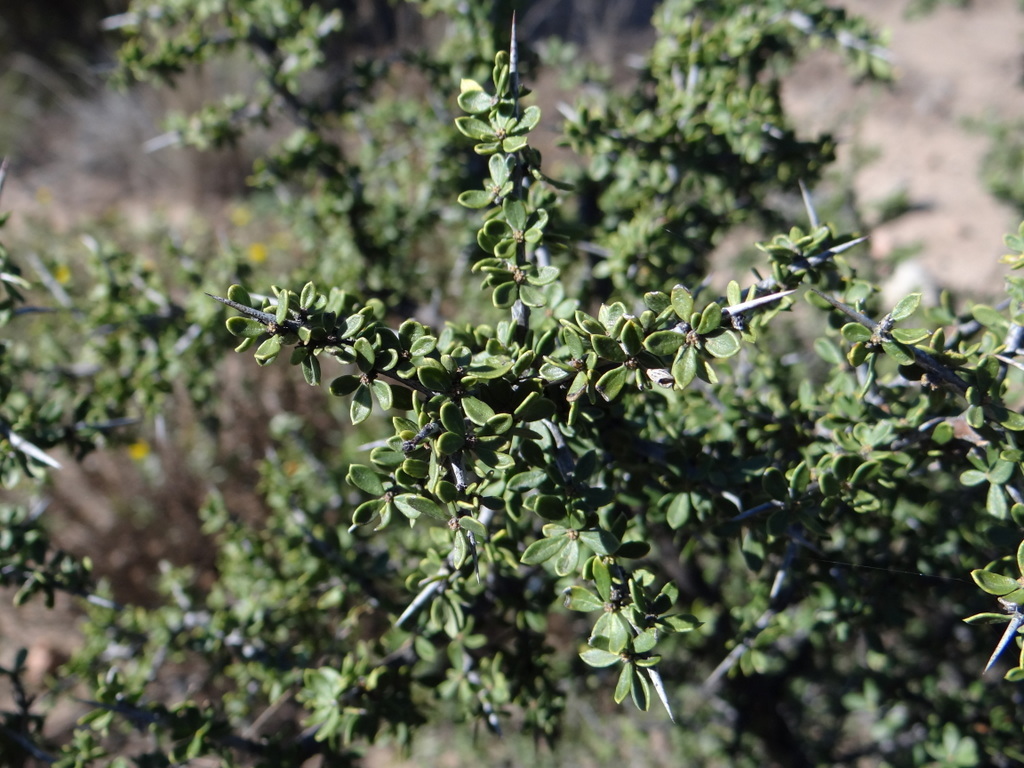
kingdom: Plantae
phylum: Tracheophyta
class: Magnoliopsida
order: Rosales
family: Rhamnaceae
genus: Condalia
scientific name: Condalia microphylla
